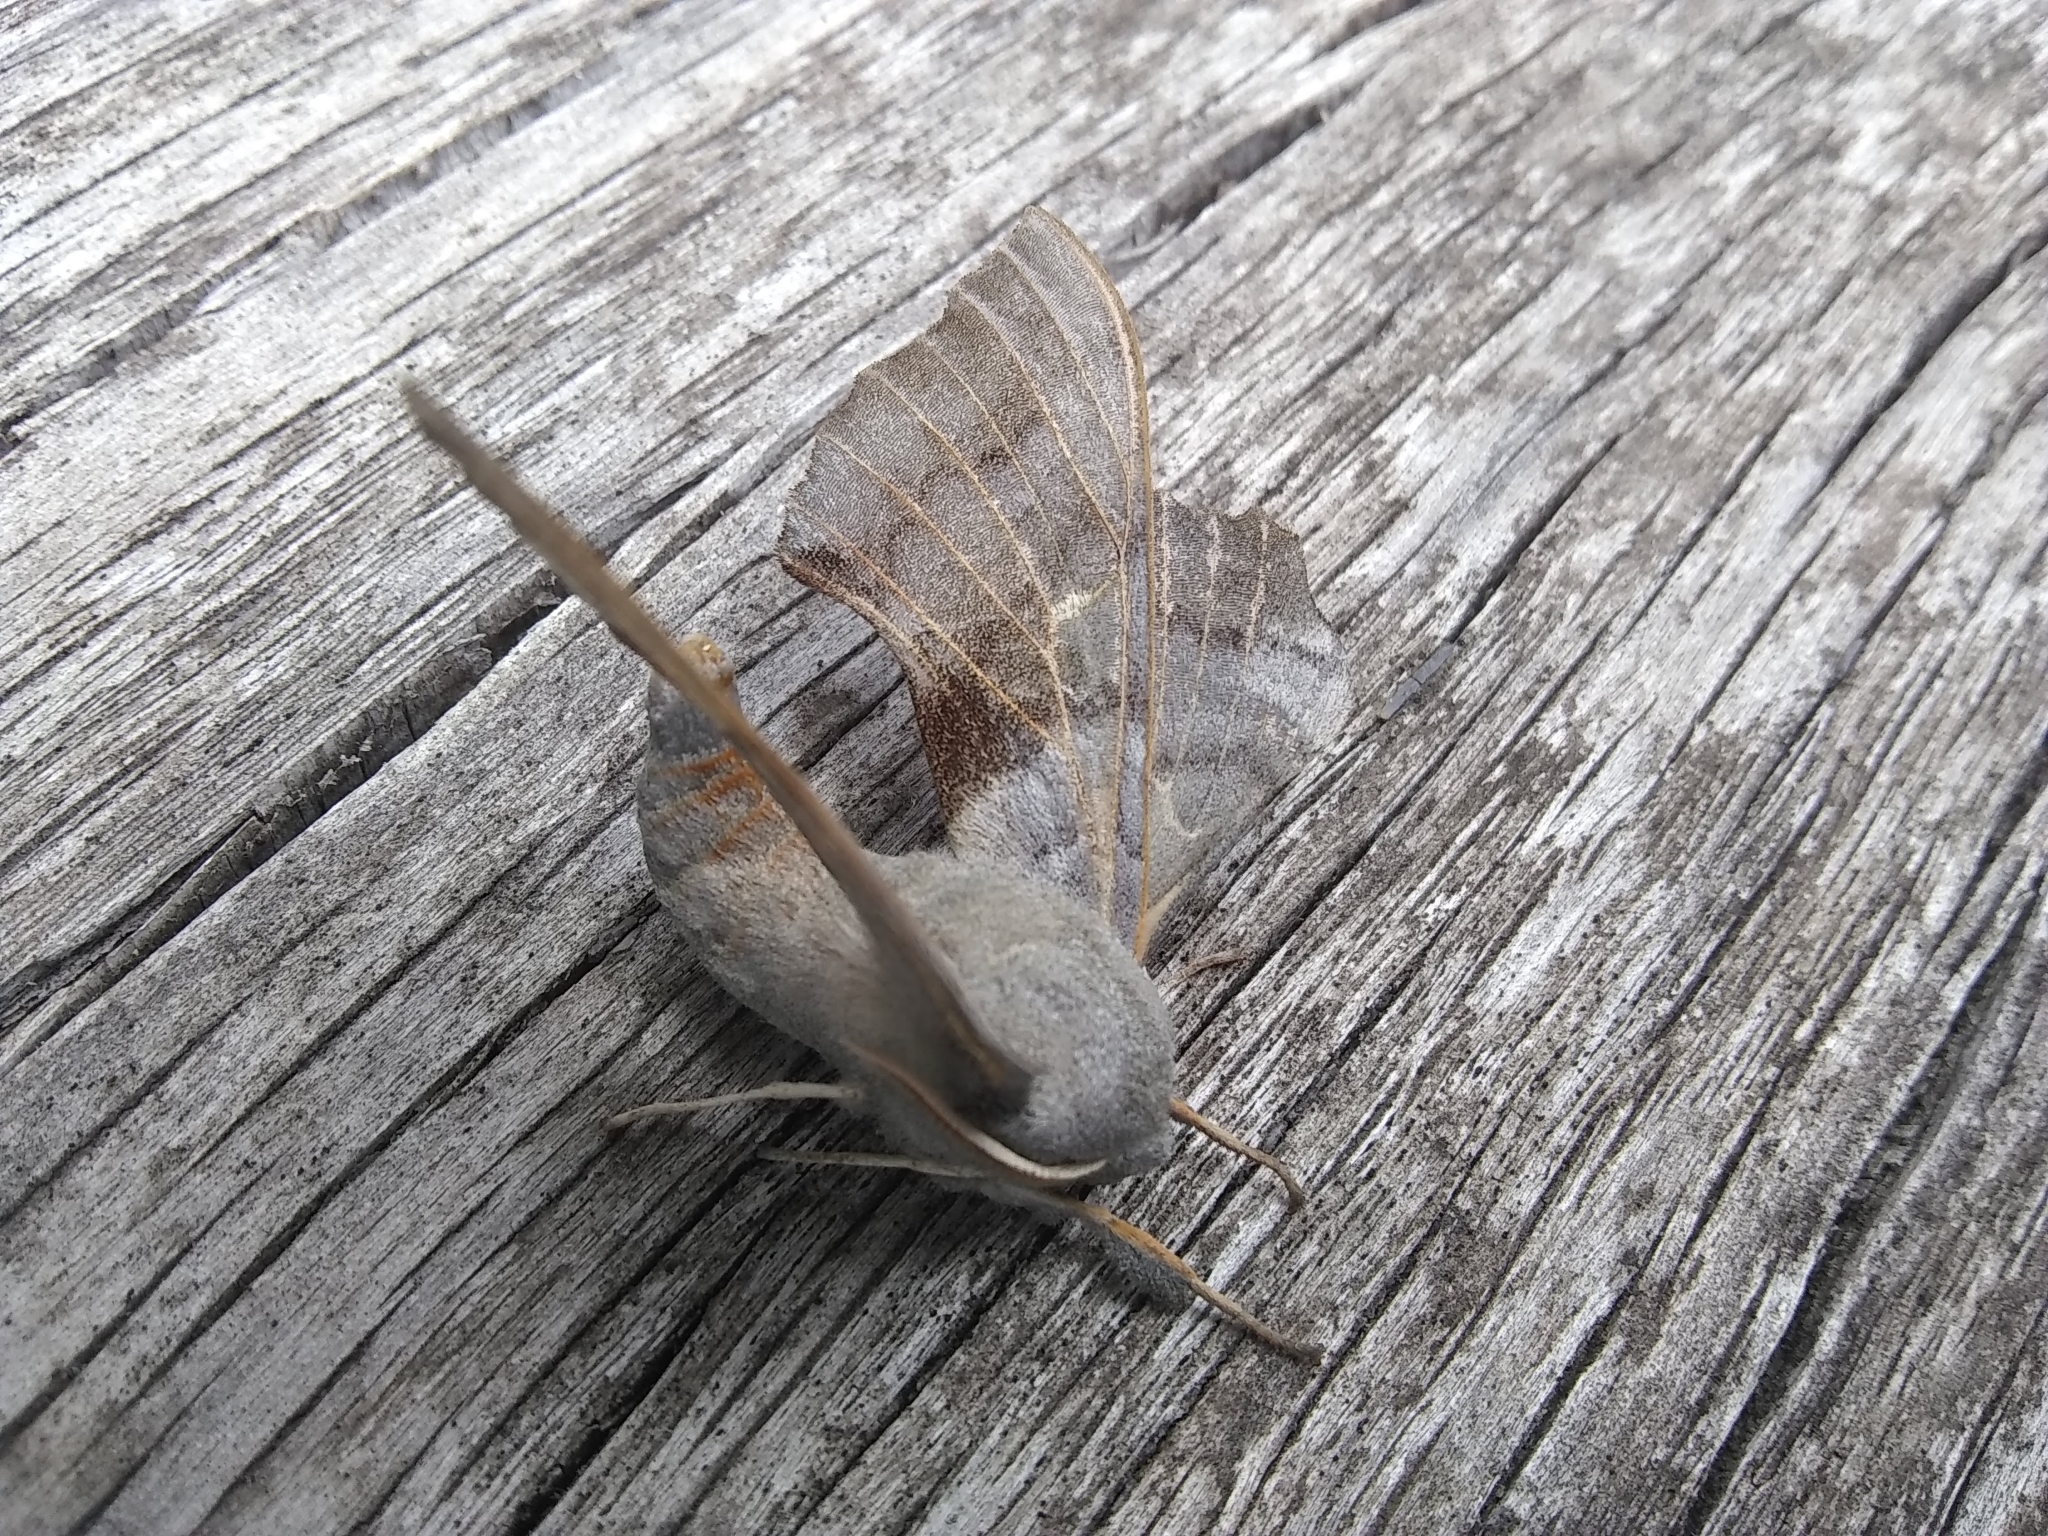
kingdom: Animalia
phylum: Arthropoda
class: Insecta
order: Lepidoptera
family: Sphingidae
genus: Laothoe
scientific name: Laothoe populi
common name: Poplar hawk-moth
